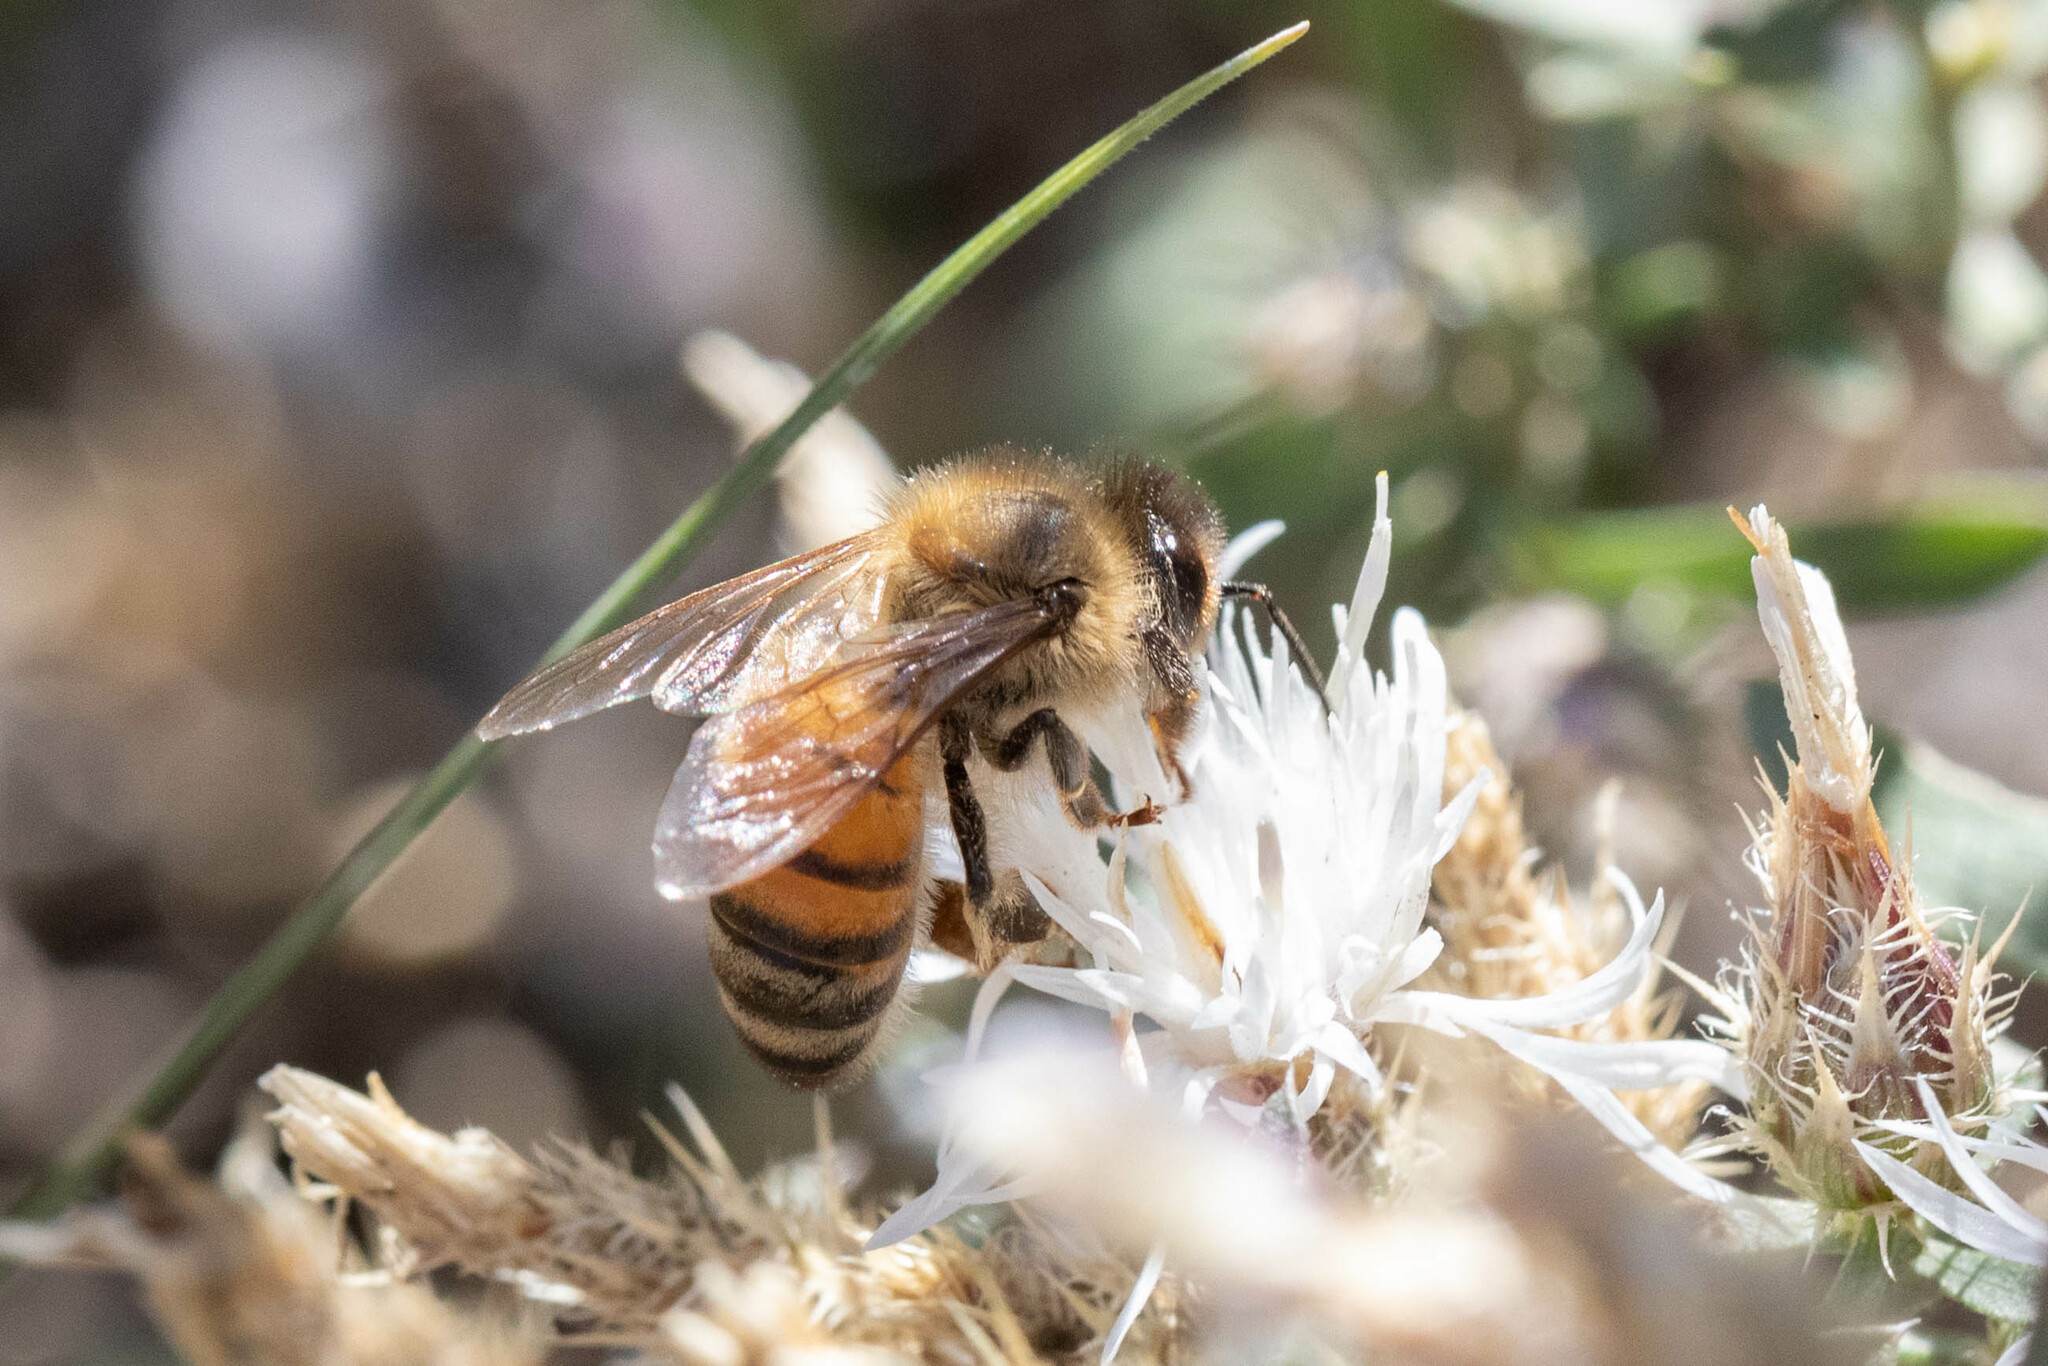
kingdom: Animalia
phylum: Arthropoda
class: Insecta
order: Hymenoptera
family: Apidae
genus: Apis
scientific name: Apis mellifera
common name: Honey bee
